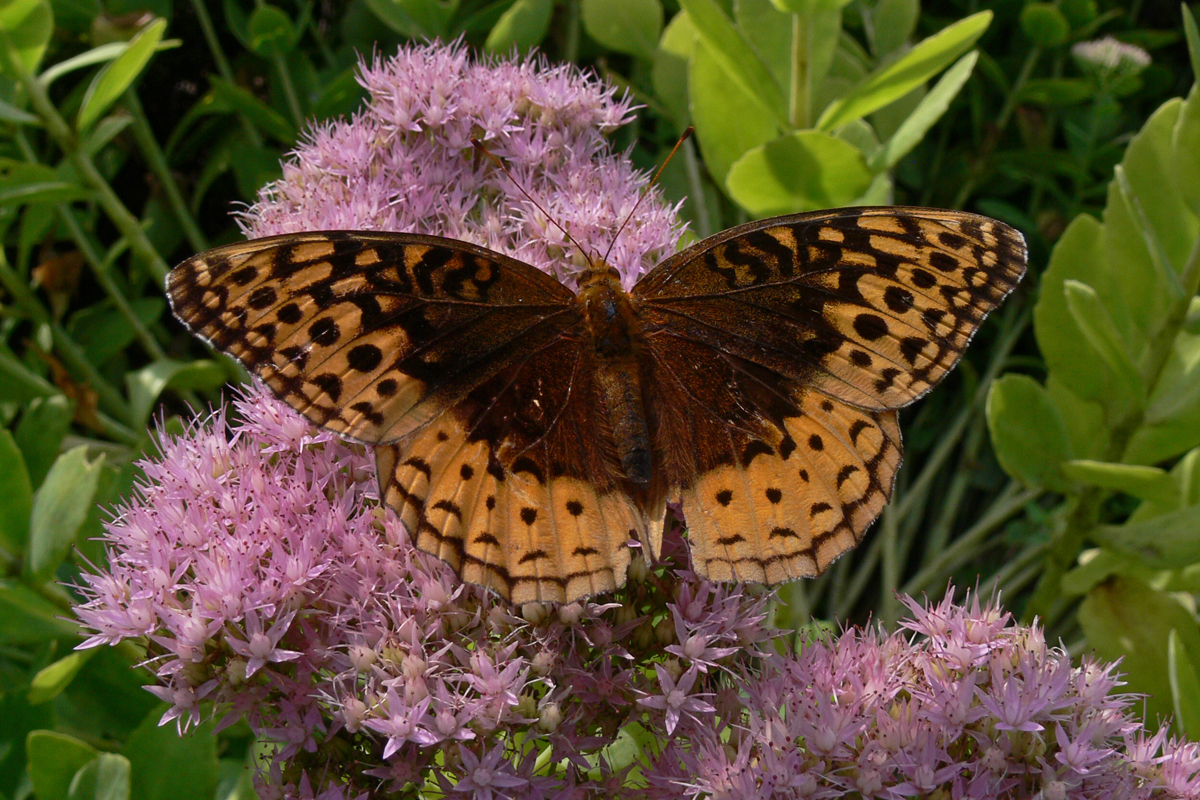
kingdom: Animalia
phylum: Arthropoda
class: Insecta
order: Lepidoptera
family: Nymphalidae
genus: Speyeria
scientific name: Speyeria cybele
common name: Great spangled fritillary
